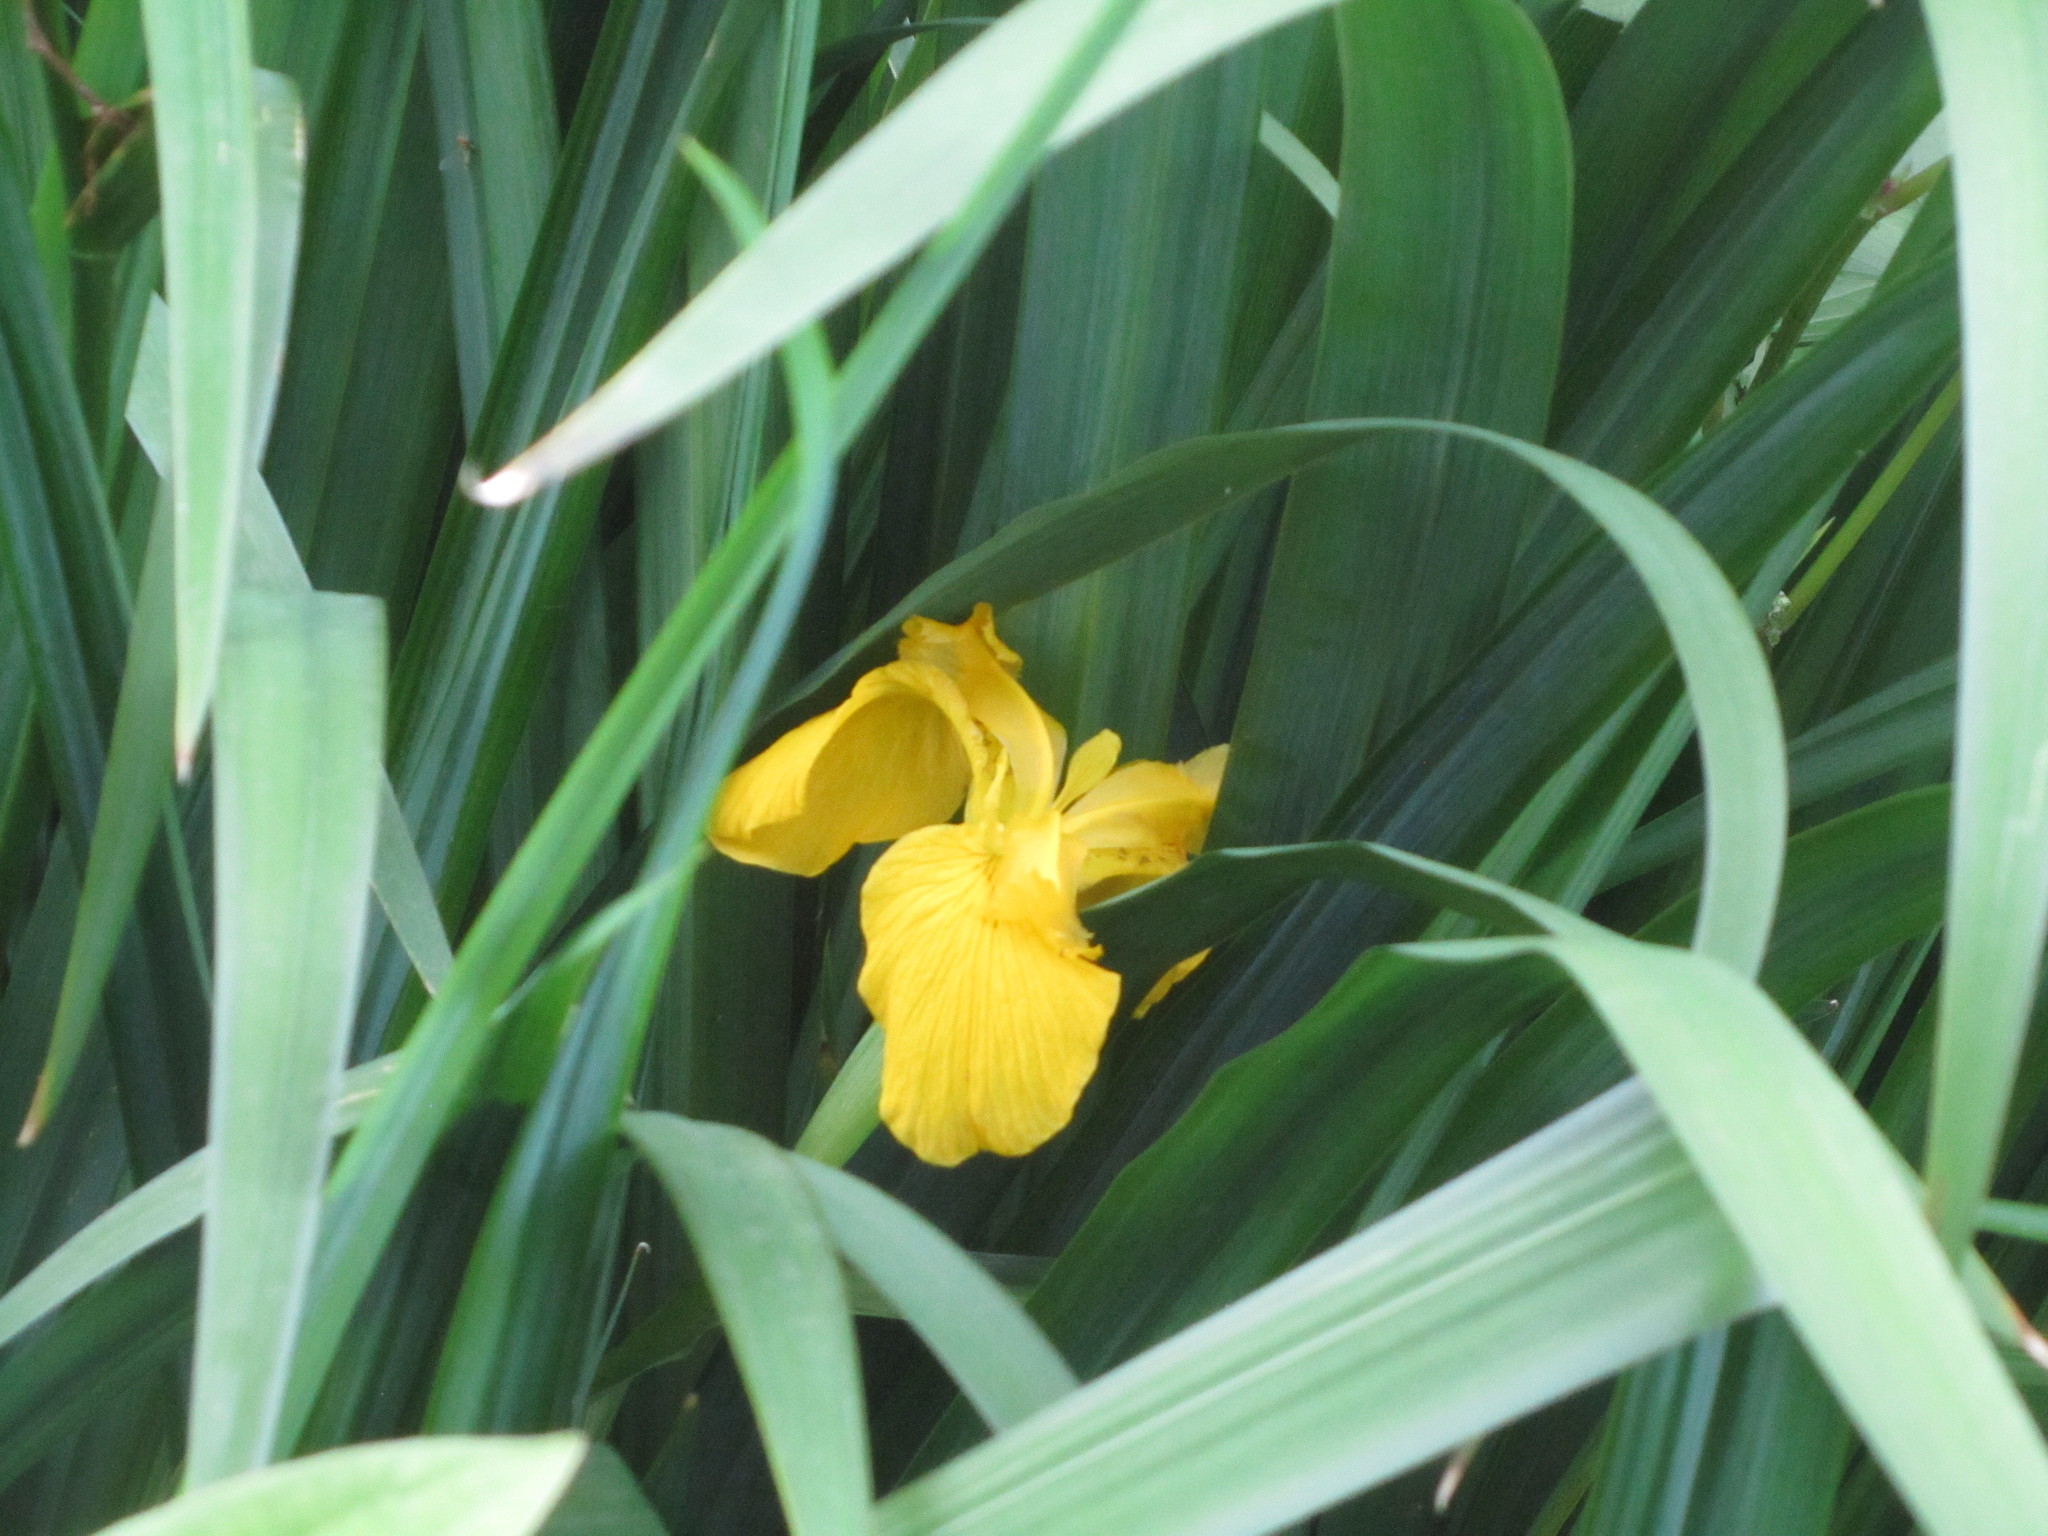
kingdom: Plantae
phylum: Tracheophyta
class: Liliopsida
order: Asparagales
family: Iridaceae
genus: Iris
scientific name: Iris pseudacorus
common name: Yellow flag
